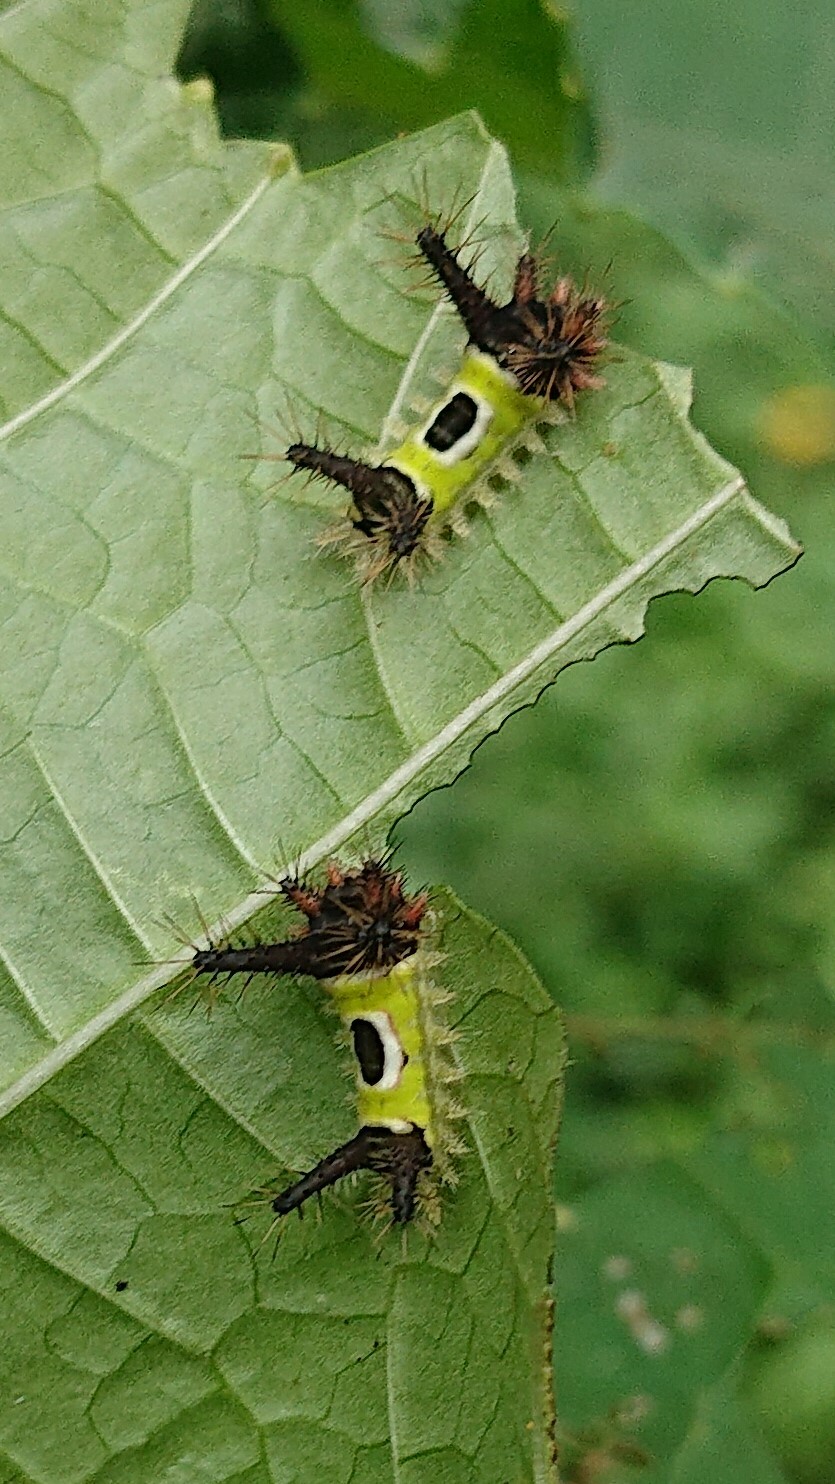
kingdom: Animalia
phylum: Arthropoda
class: Insecta
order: Lepidoptera
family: Limacodidae
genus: Acharia
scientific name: Acharia hyperoche
